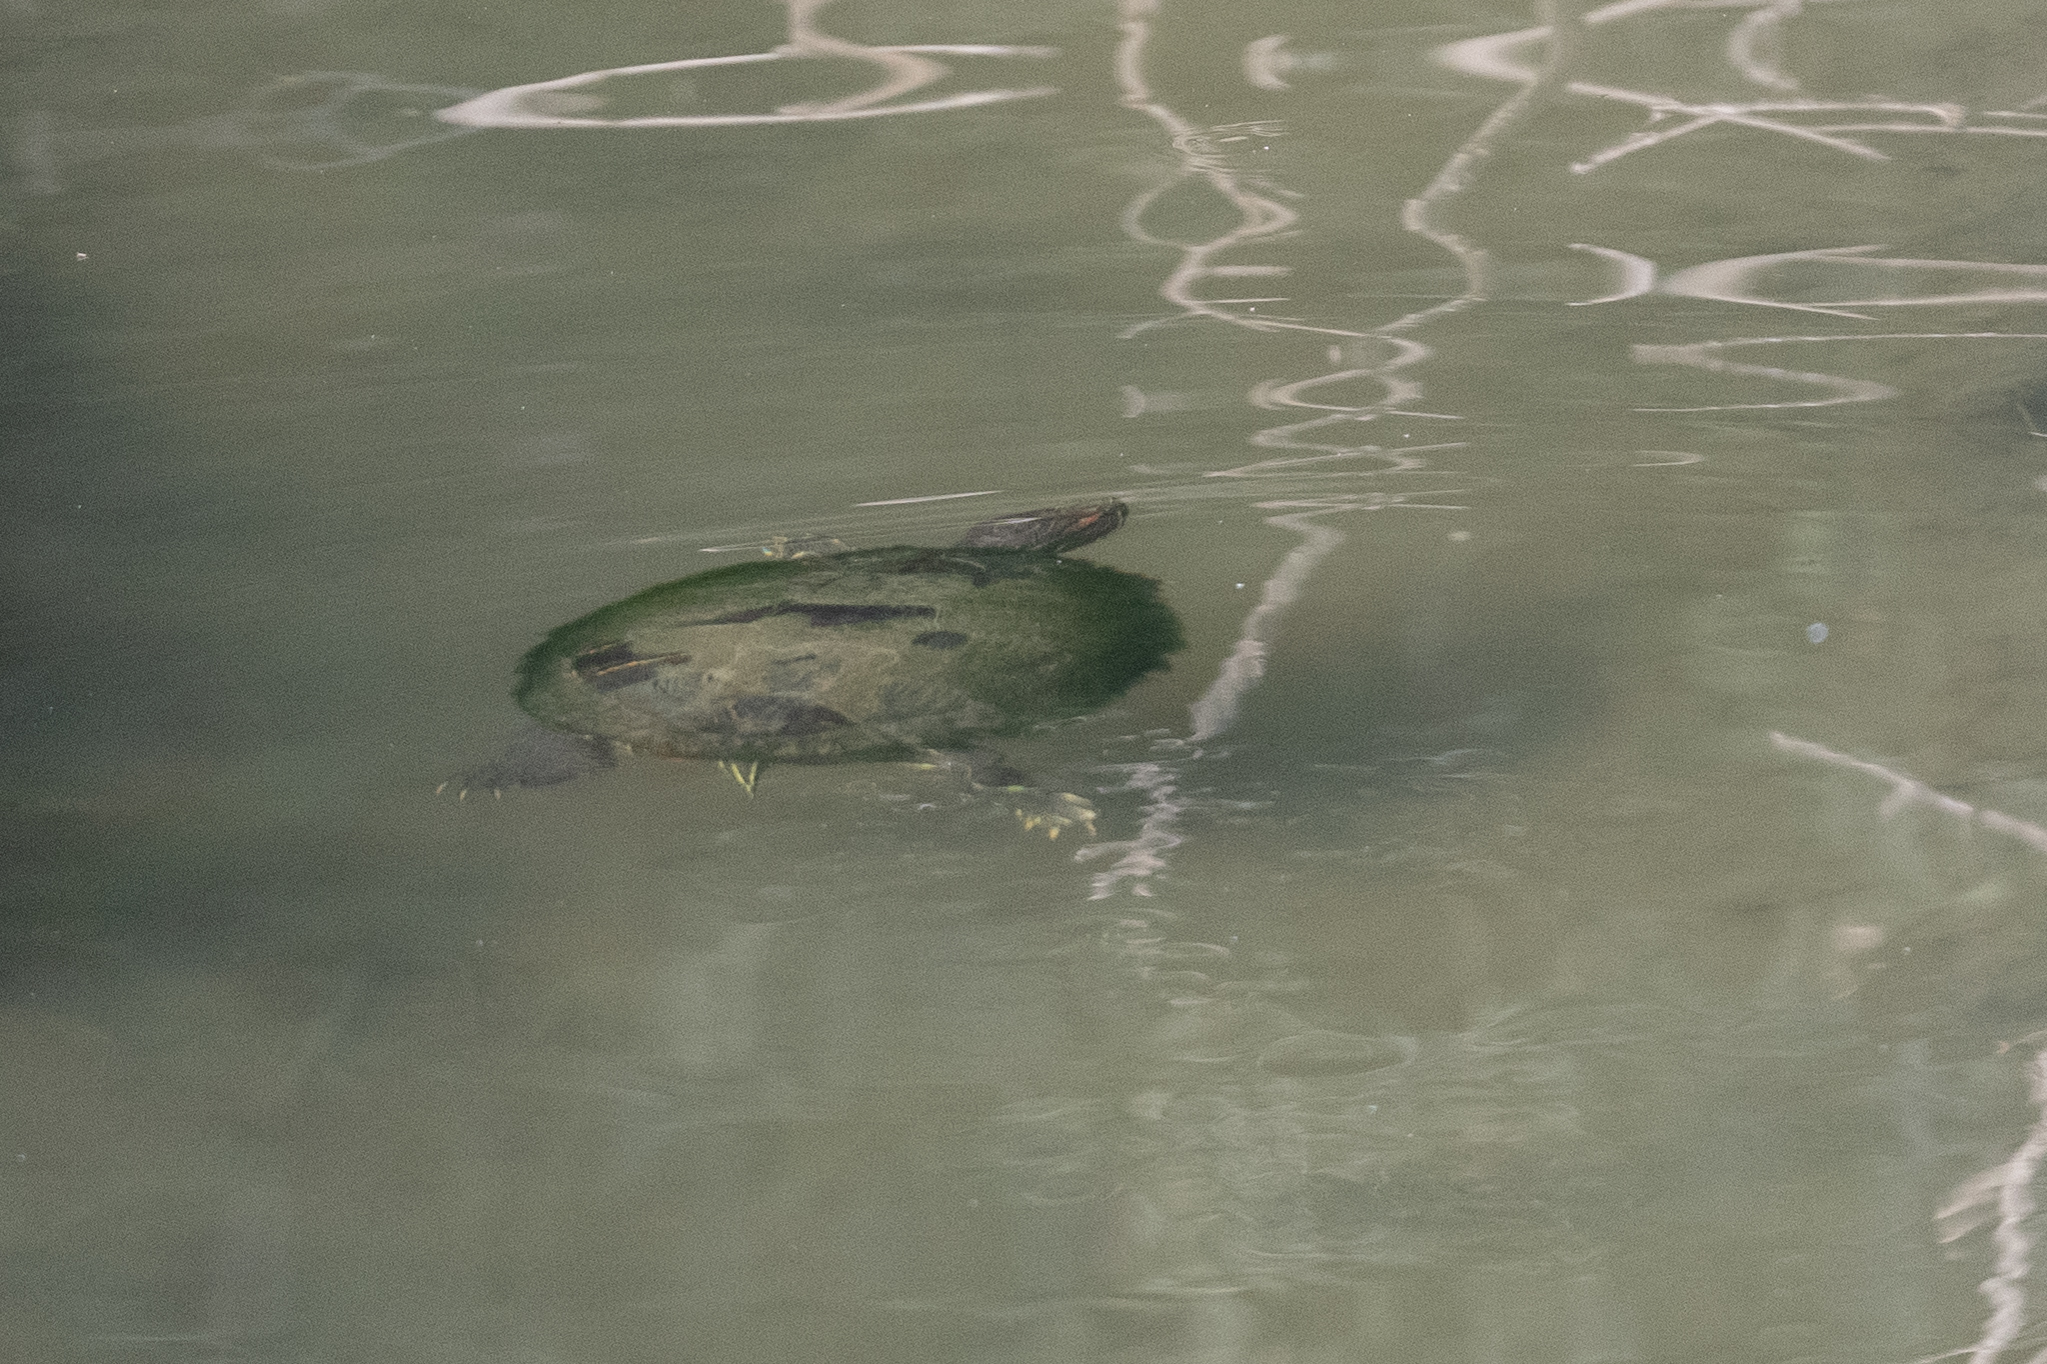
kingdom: Animalia
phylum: Chordata
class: Testudines
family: Emydidae
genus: Trachemys
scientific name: Trachemys scripta
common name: Slider
